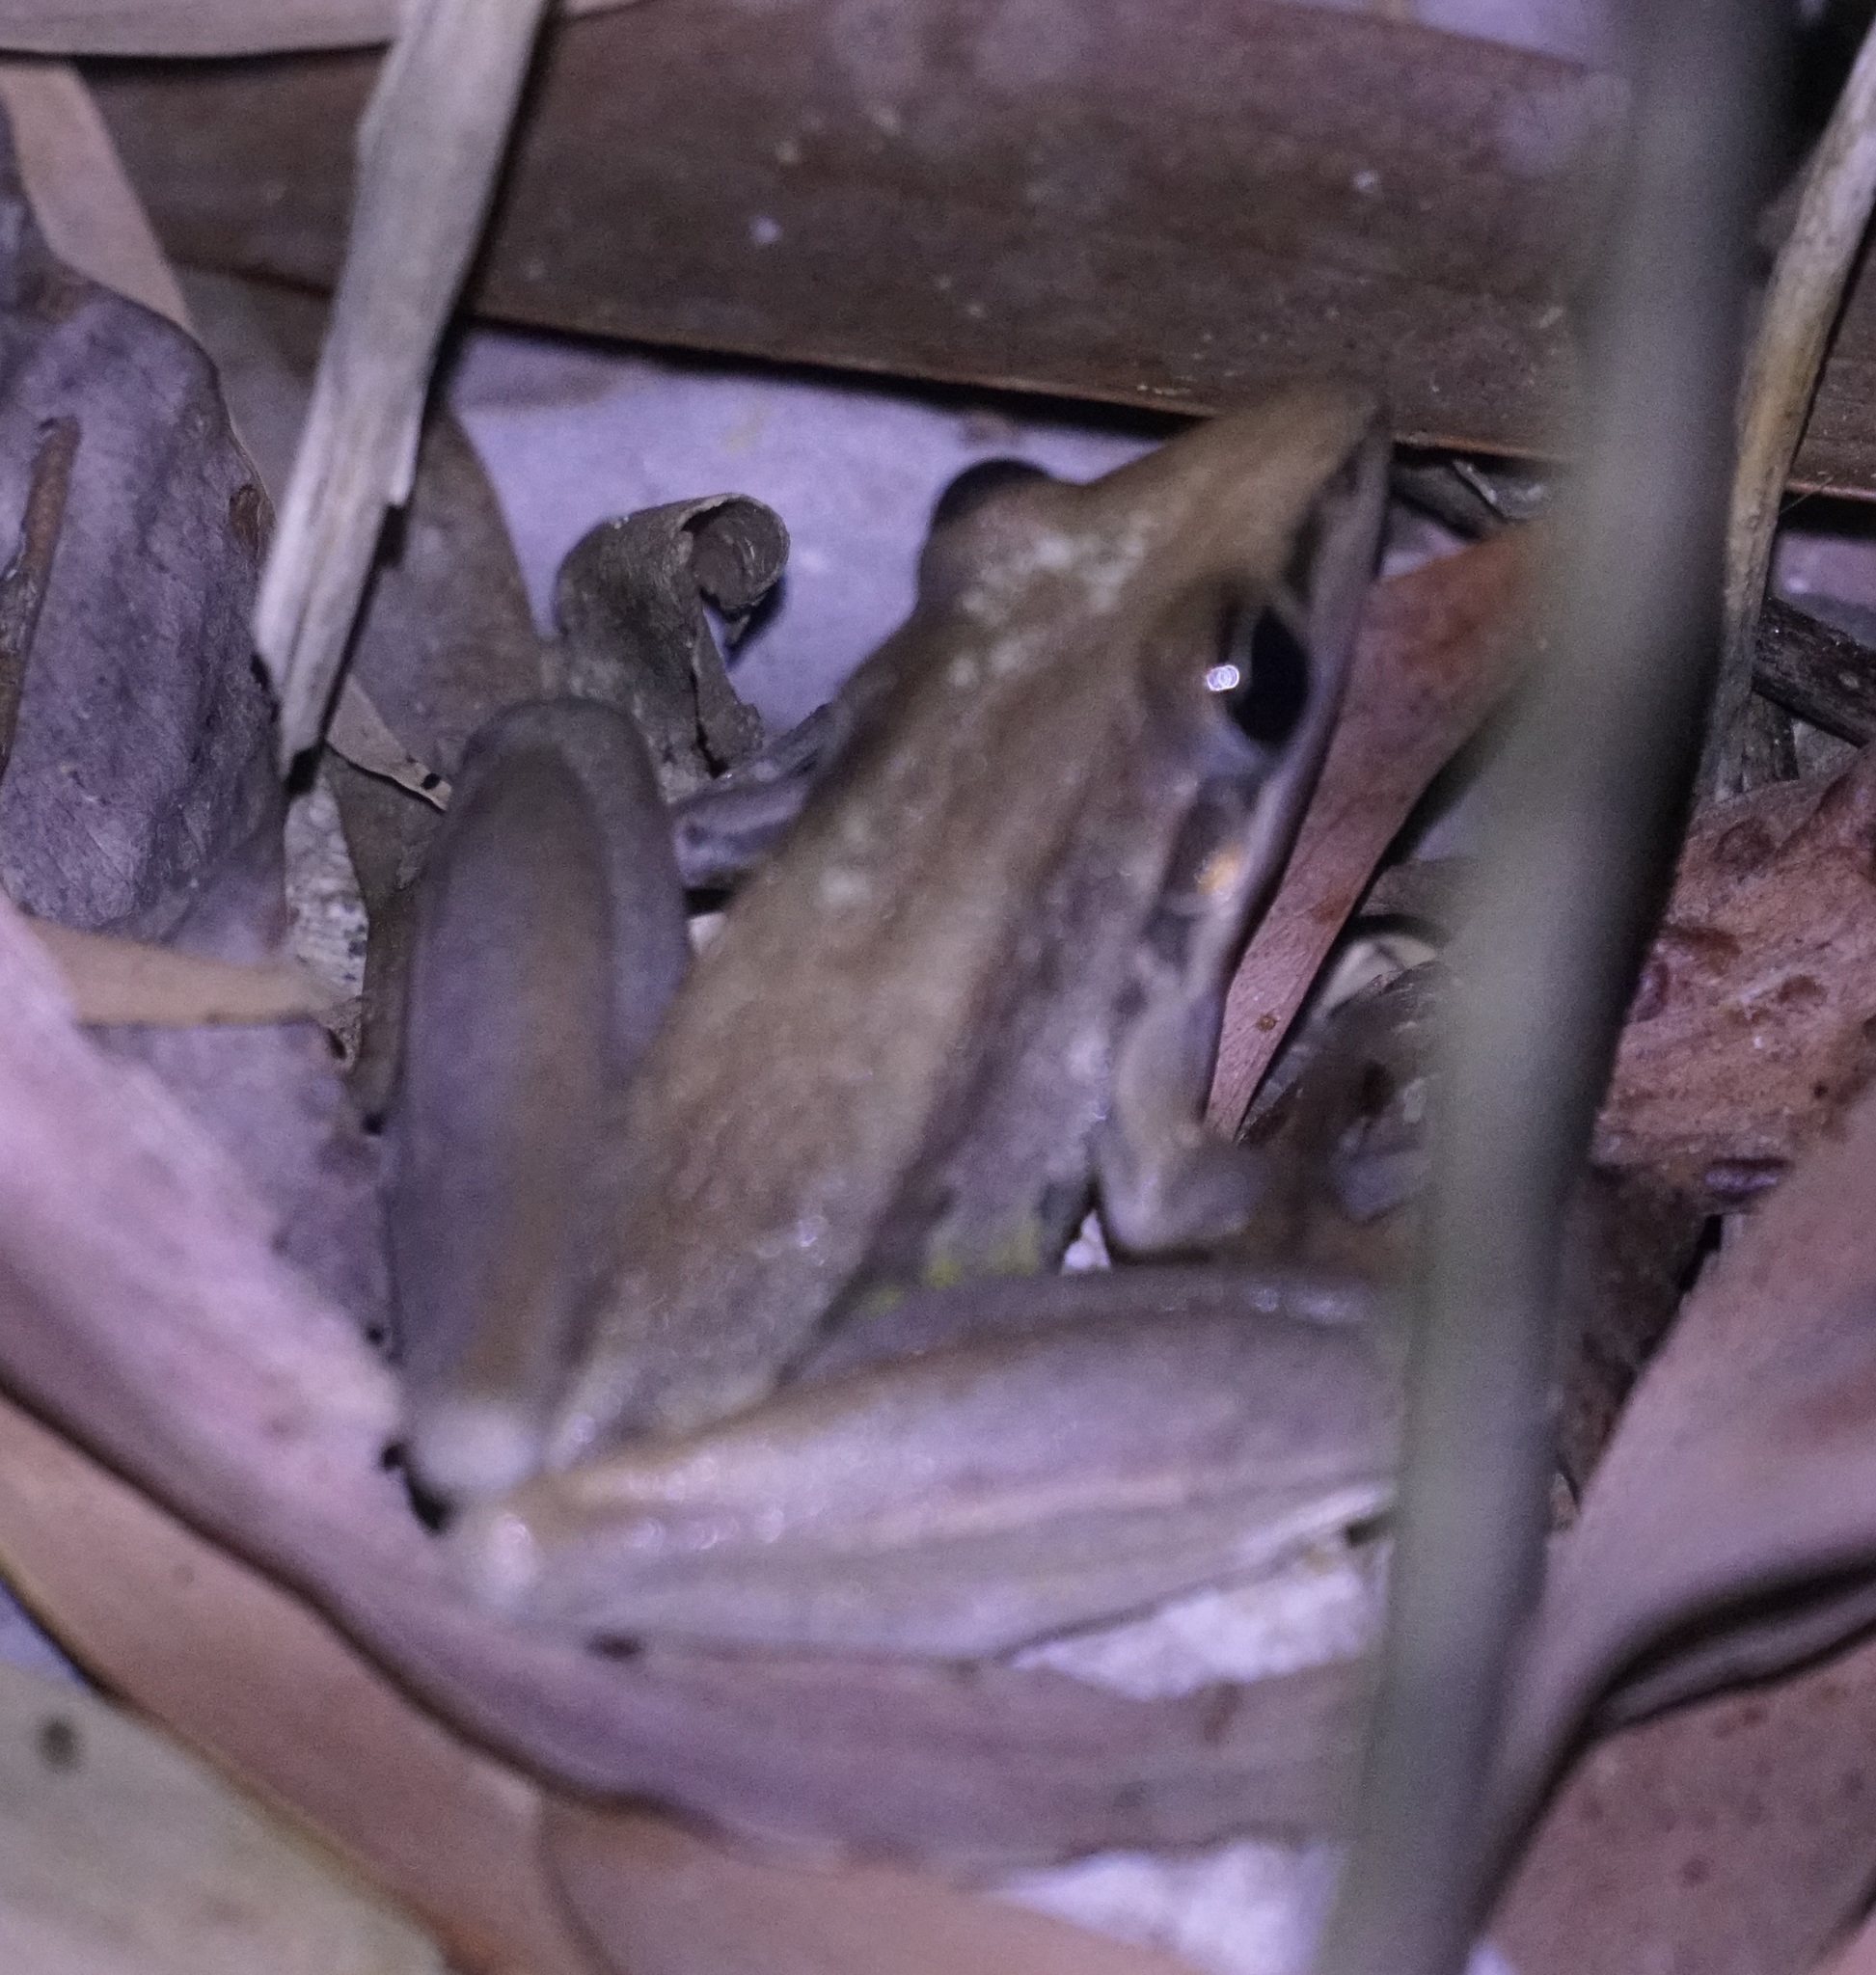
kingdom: Animalia
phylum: Chordata
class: Amphibia
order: Anura
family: Pelodryadidae
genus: Litoria
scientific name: Litoria nasuta
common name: Rocket frog
